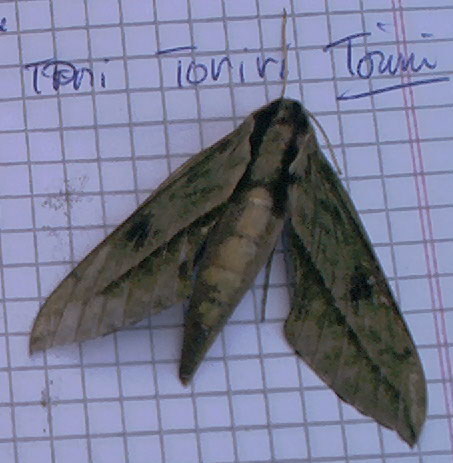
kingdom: Animalia
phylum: Arthropoda
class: Insecta
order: Lepidoptera
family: Sphingidae
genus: Xylophanes
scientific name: Xylophanes docilis
